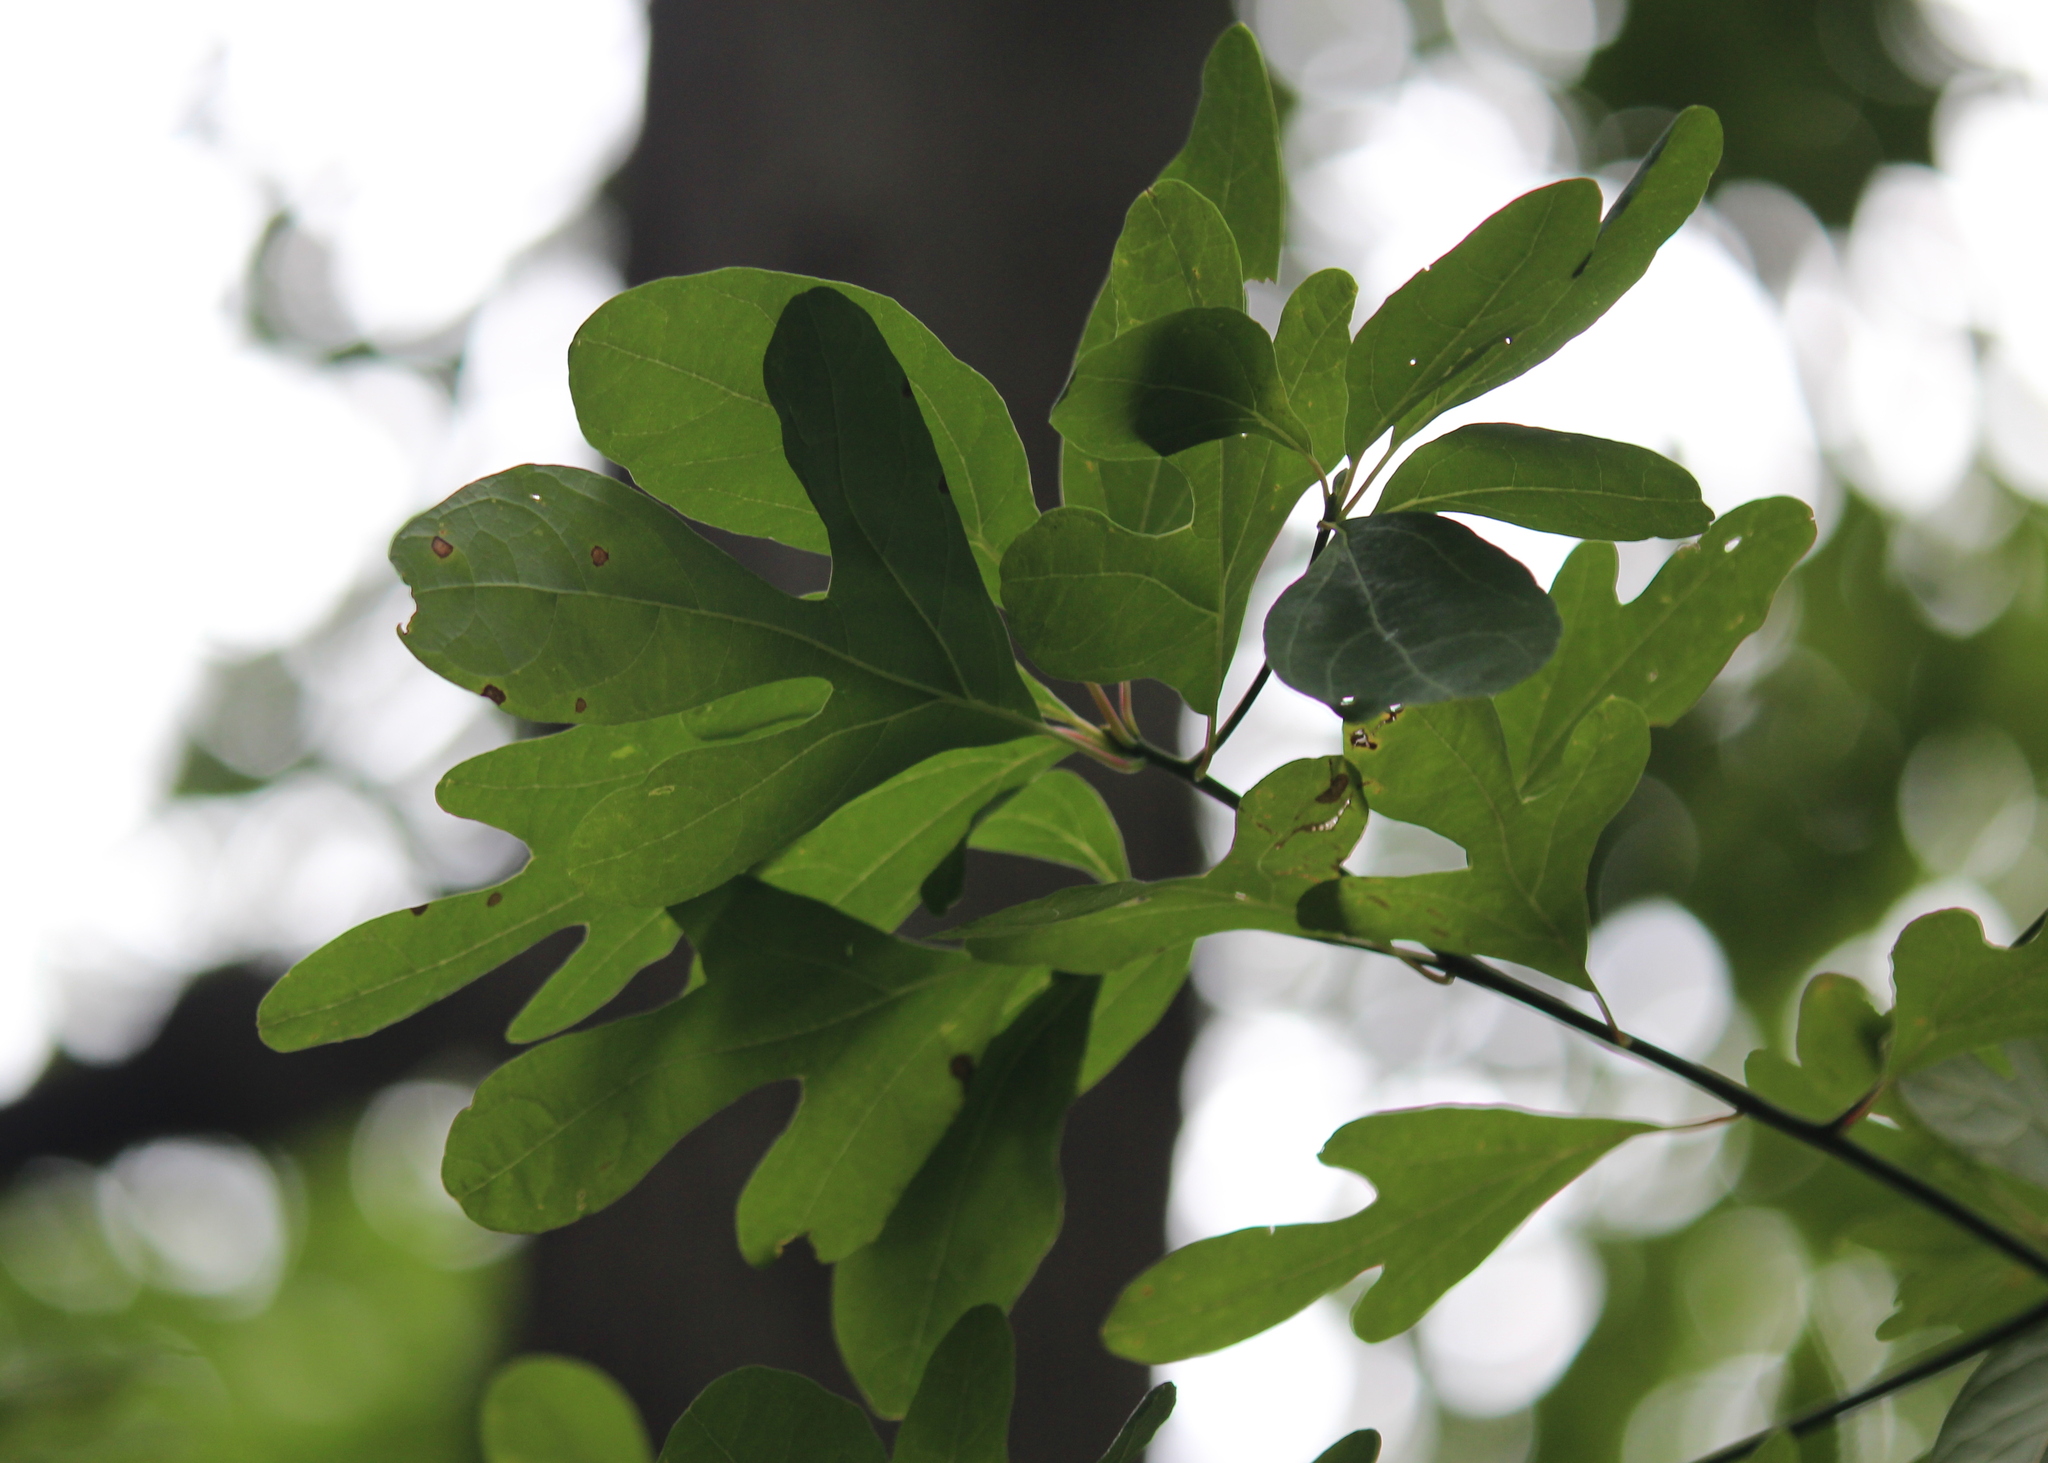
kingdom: Plantae
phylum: Tracheophyta
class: Magnoliopsida
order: Laurales
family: Lauraceae
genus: Sassafras
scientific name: Sassafras albidum
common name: Sassafras
